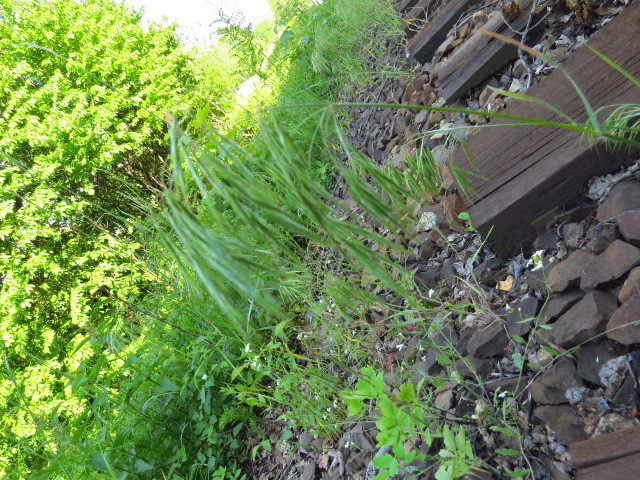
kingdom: Plantae
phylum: Tracheophyta
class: Liliopsida
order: Poales
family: Poaceae
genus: Bromus
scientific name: Bromus tectorum
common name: Cheatgrass
